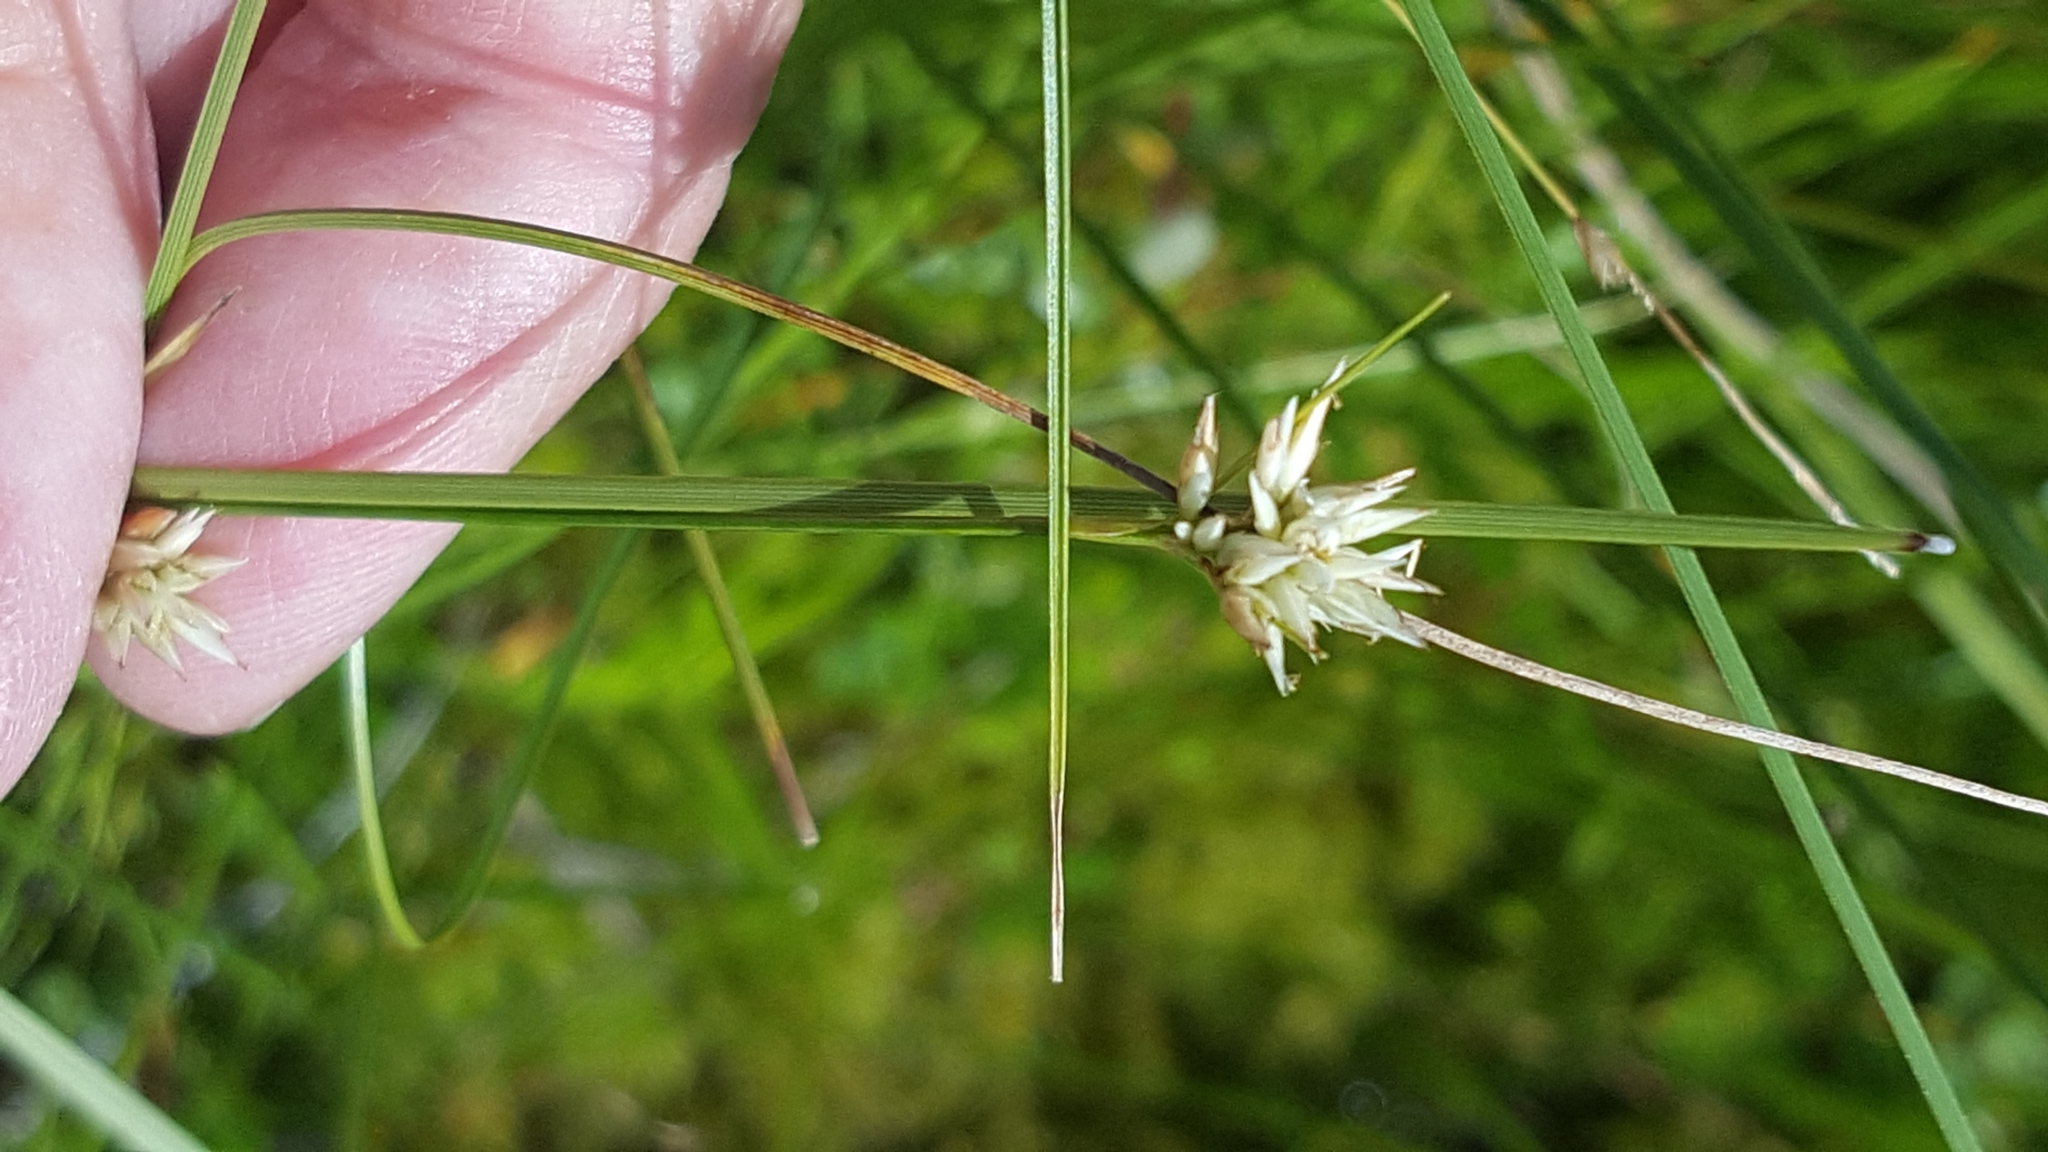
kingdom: Plantae
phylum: Tracheophyta
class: Liliopsida
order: Poales
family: Cyperaceae
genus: Rhynchospora
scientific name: Rhynchospora alba
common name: White beak-sedge
